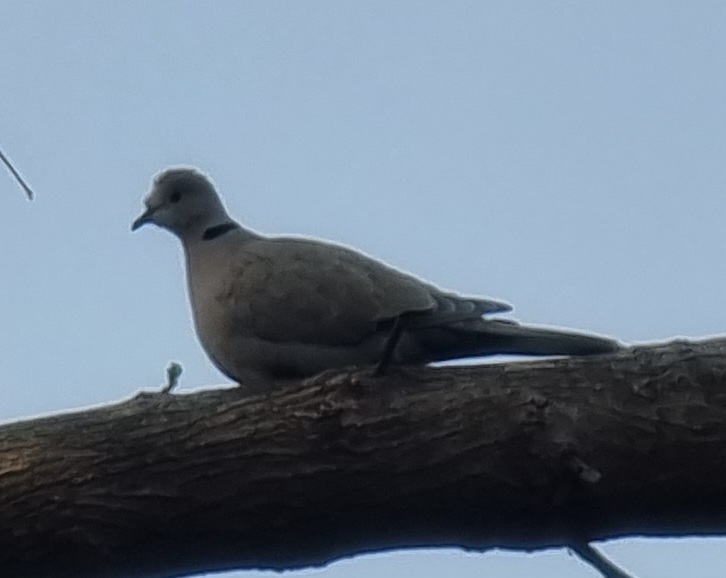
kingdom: Animalia
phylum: Chordata
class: Aves
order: Columbiformes
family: Columbidae
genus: Streptopelia
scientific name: Streptopelia decaocto
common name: Eurasian collared dove
